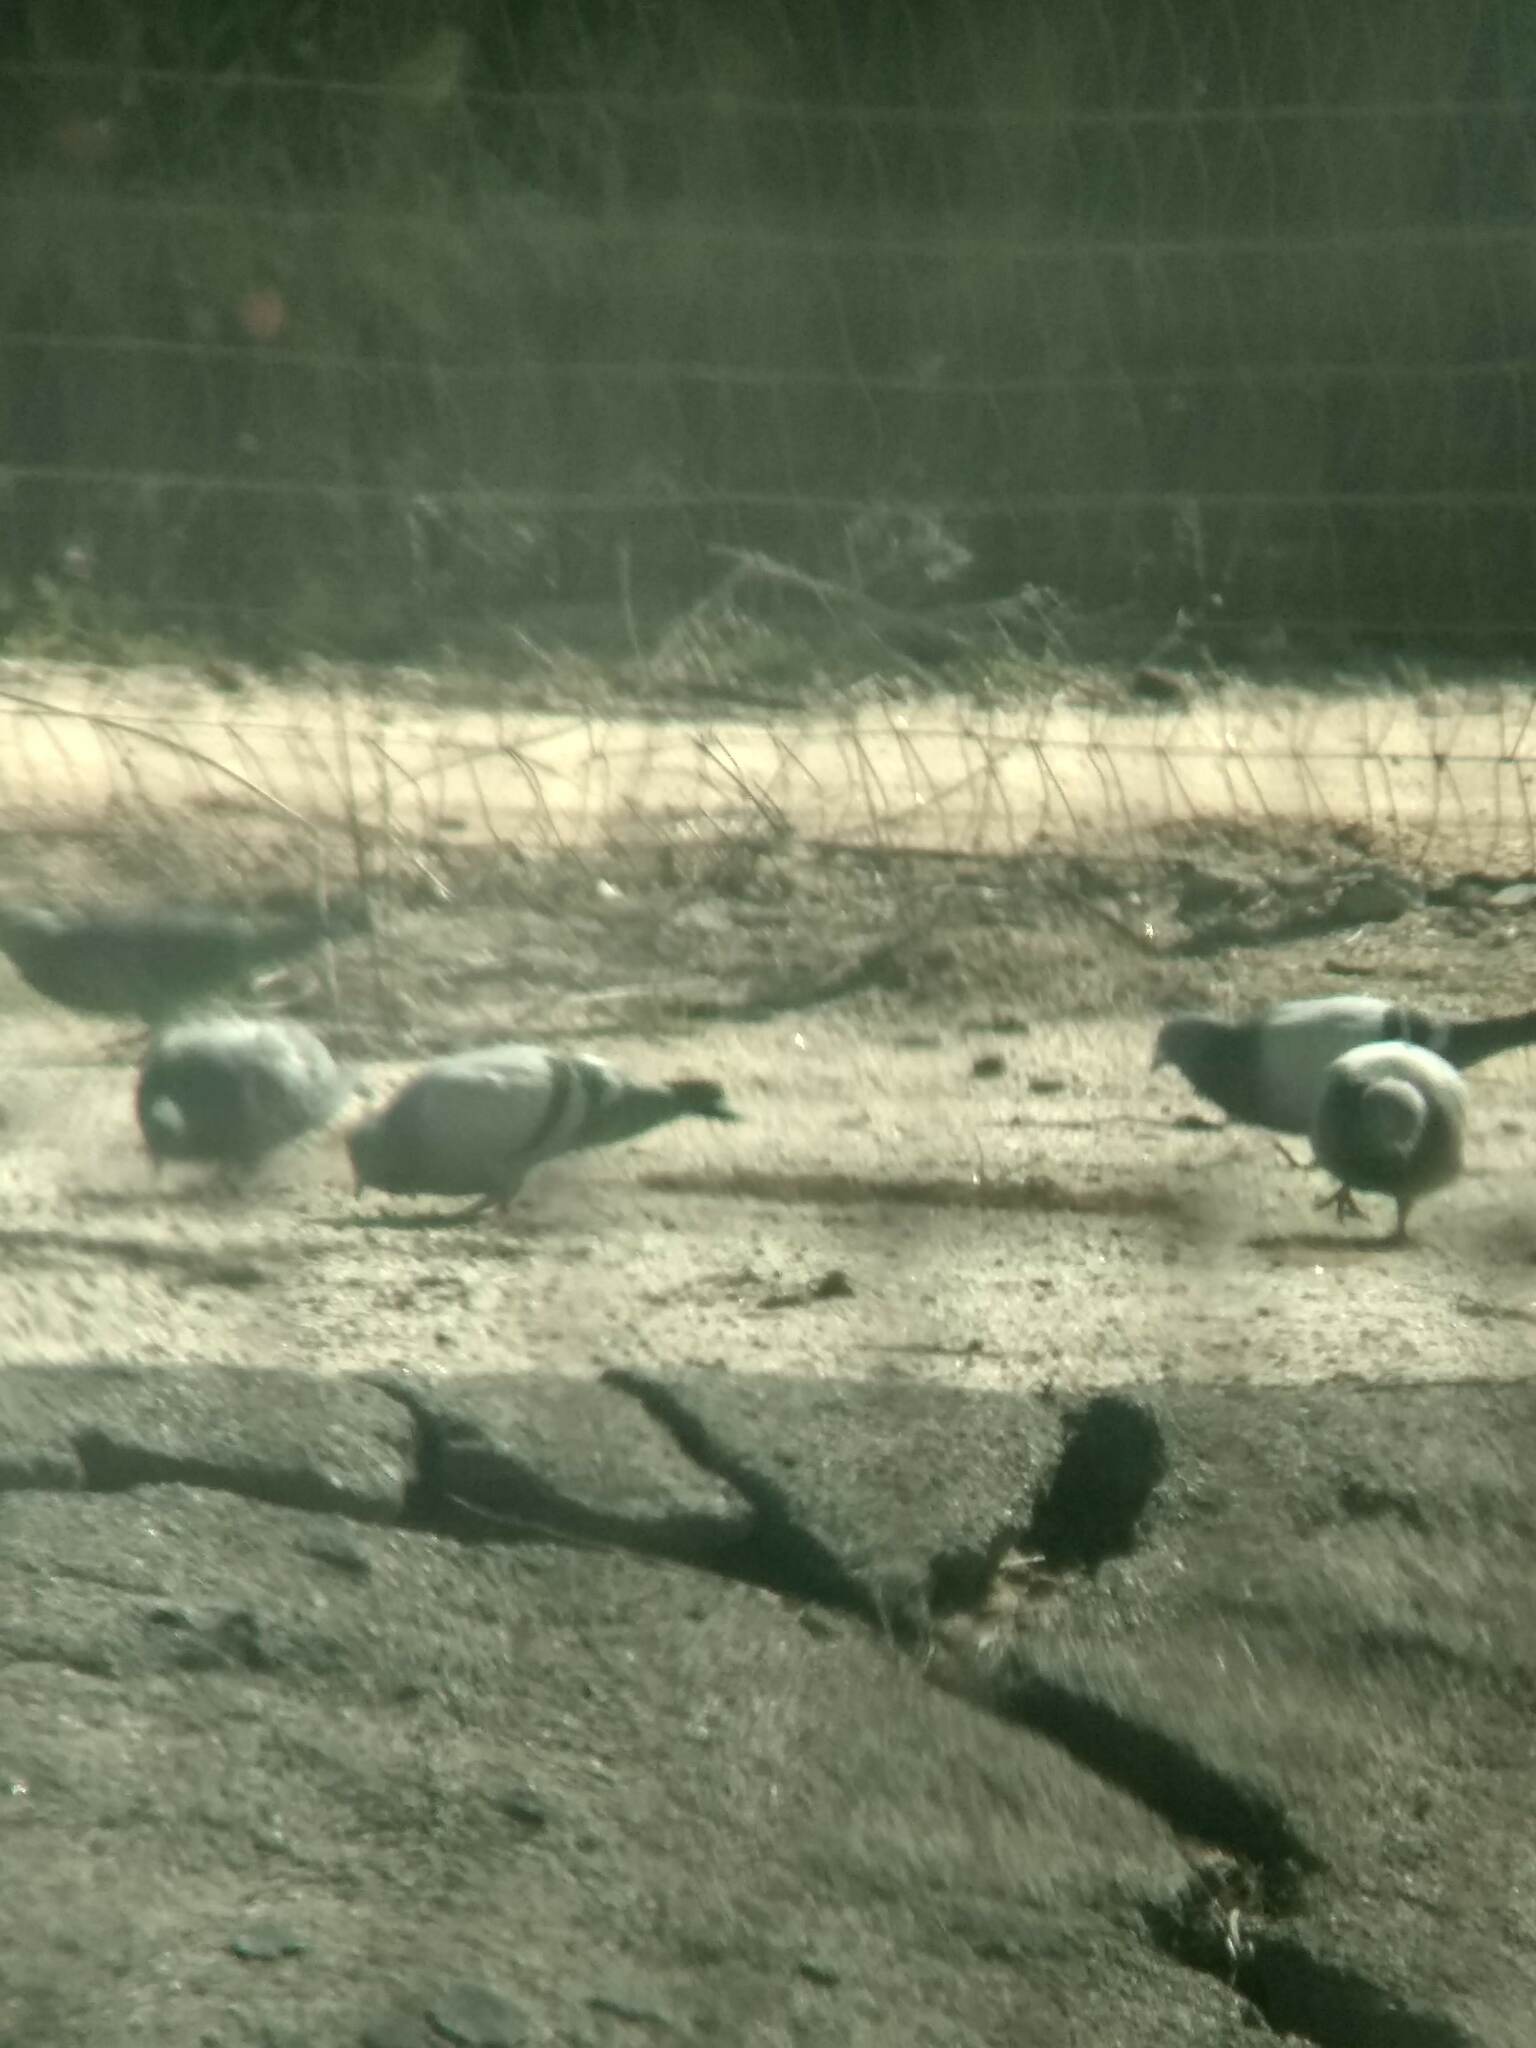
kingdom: Animalia
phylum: Chordata
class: Aves
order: Columbiformes
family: Columbidae
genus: Columba
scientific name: Columba livia
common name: Rock pigeon
